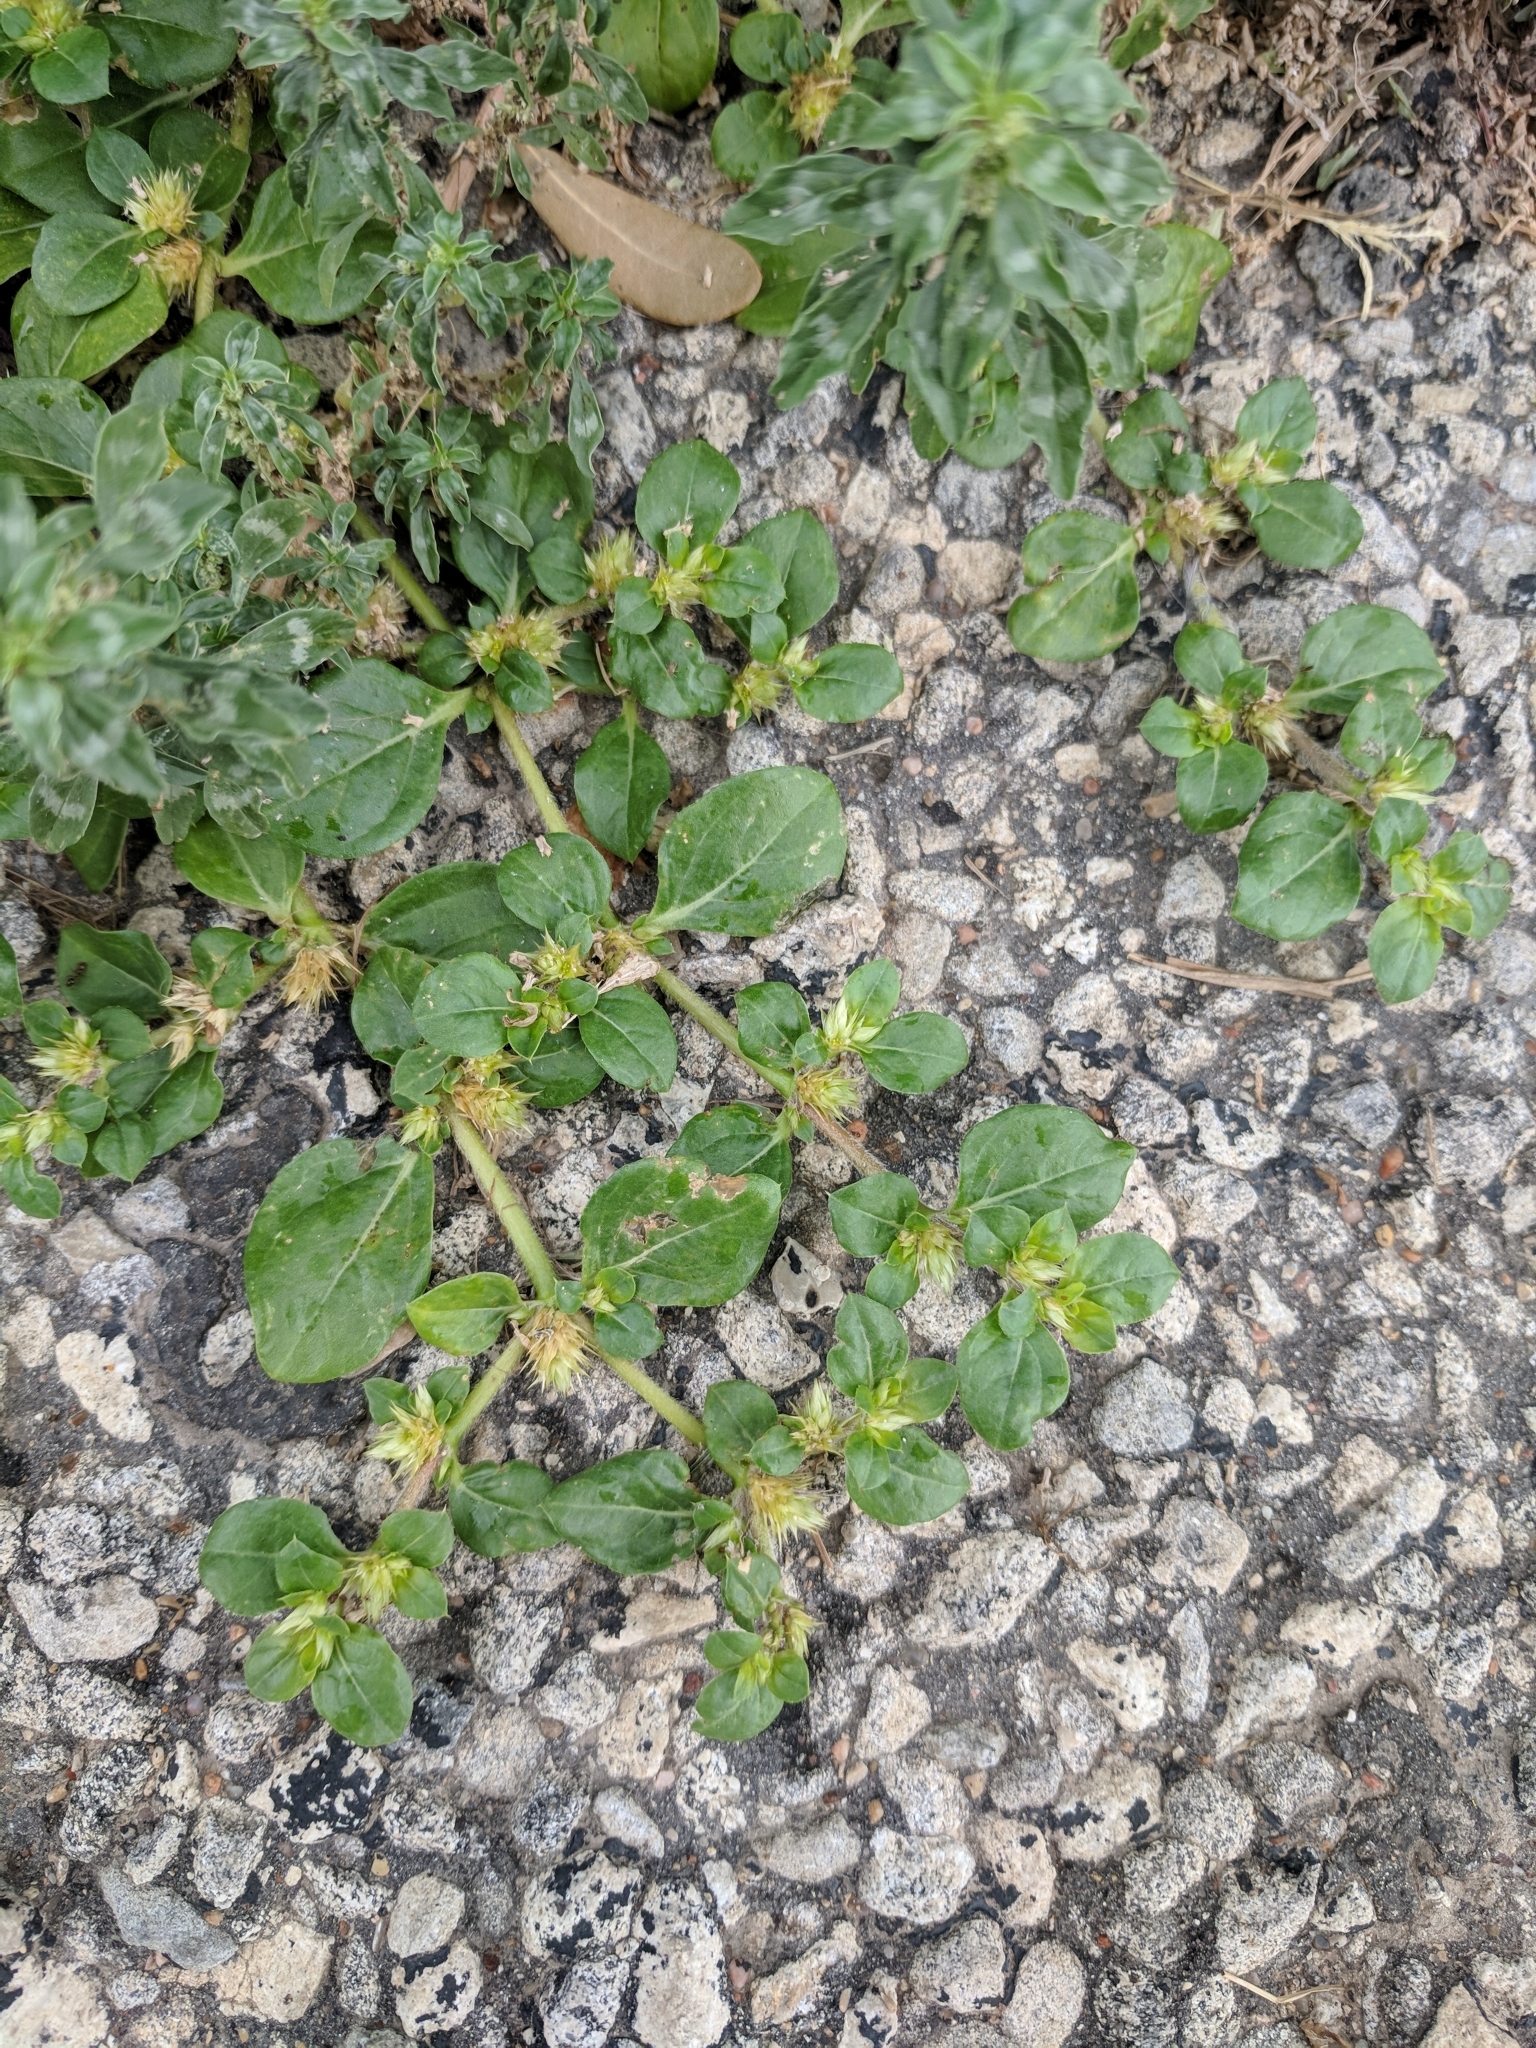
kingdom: Plantae
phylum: Tracheophyta
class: Magnoliopsida
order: Caryophyllales
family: Amaranthaceae
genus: Alternanthera
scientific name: Alternanthera pungens
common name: Khakiweed
